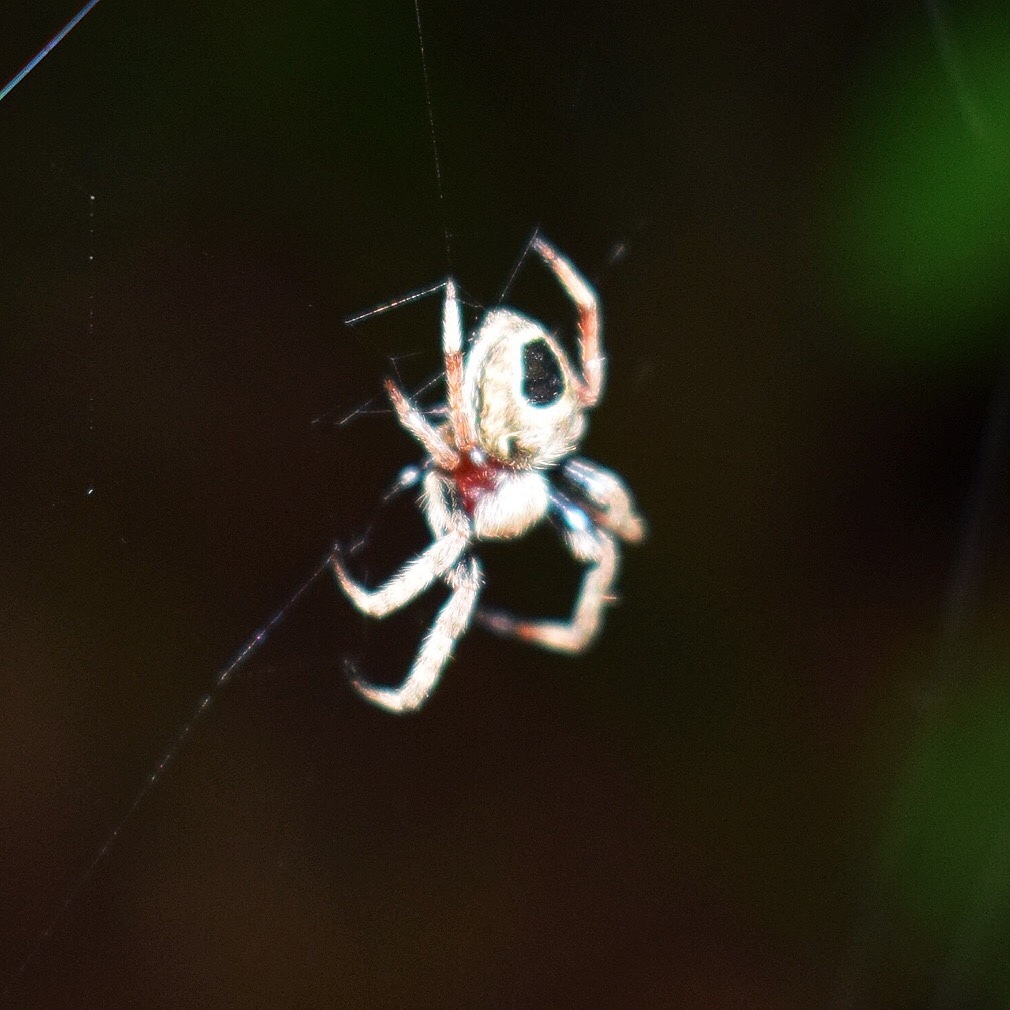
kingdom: Animalia
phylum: Arthropoda
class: Arachnida
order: Araneae
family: Araneidae
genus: Araneus
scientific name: Araneus nigroquadratus
